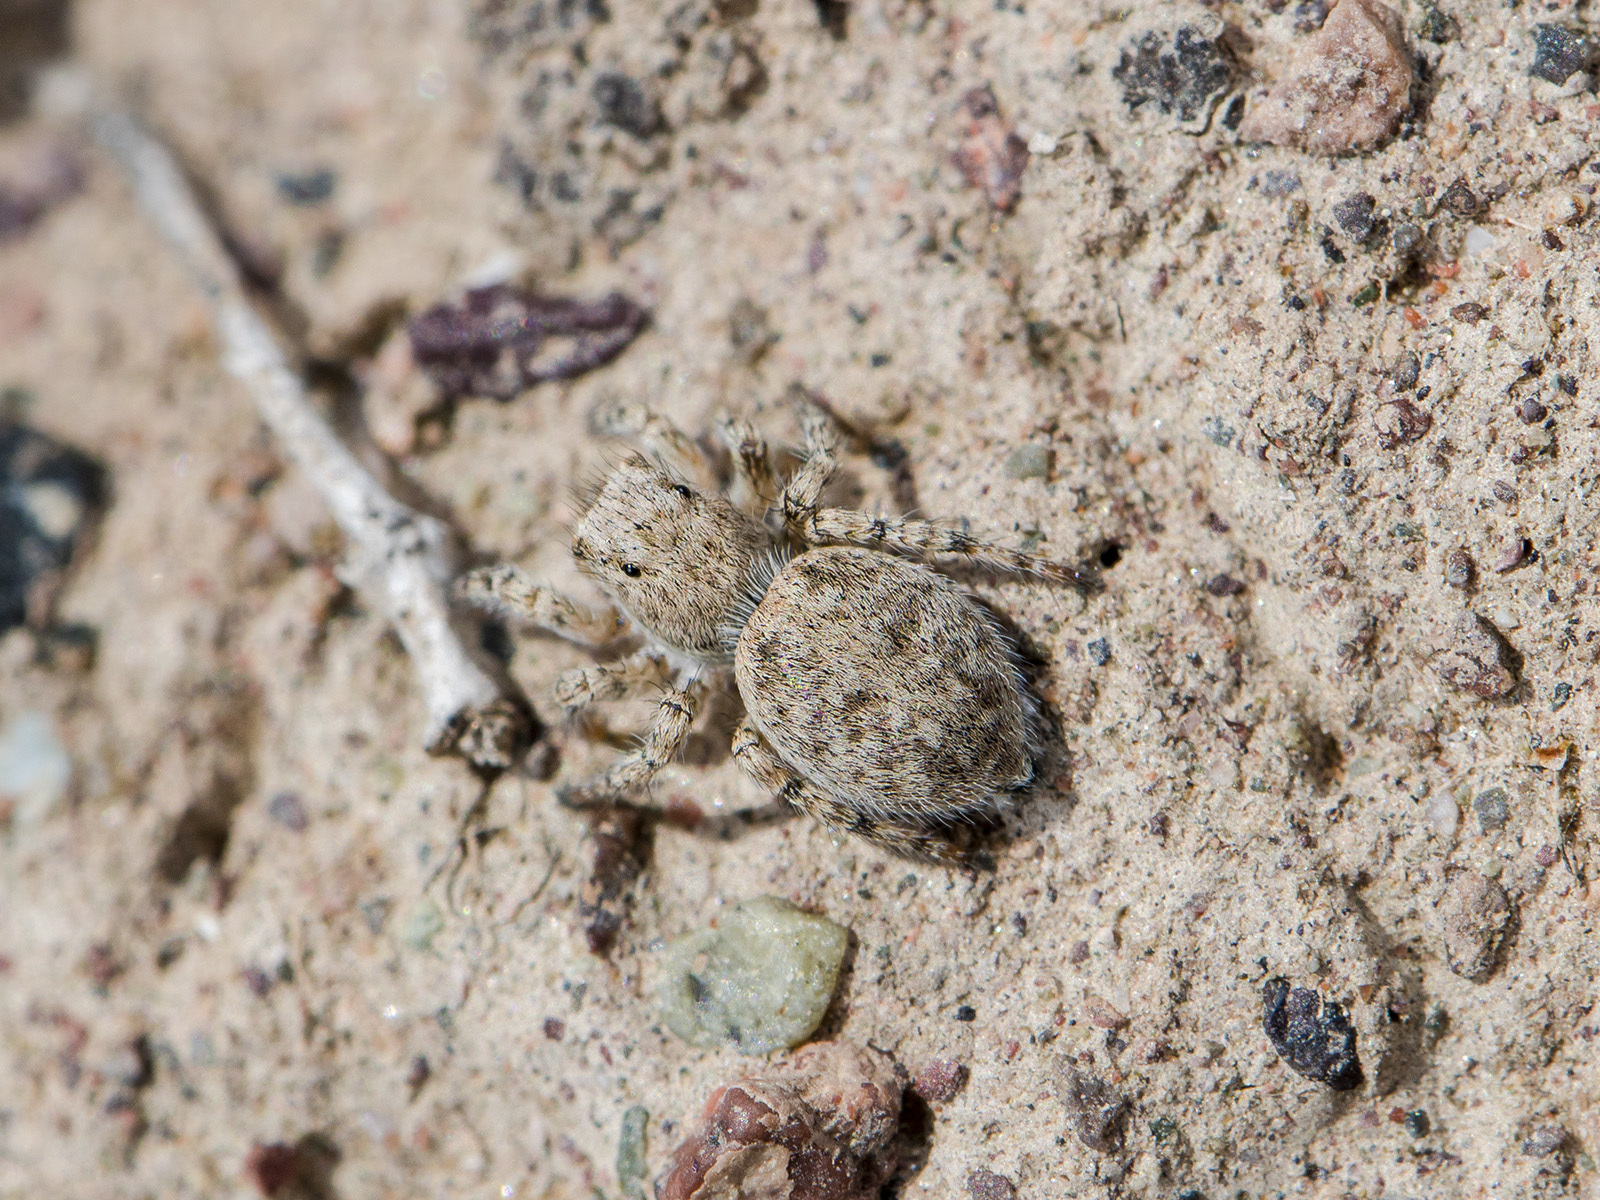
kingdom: Animalia
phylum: Arthropoda
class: Arachnida
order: Araneae
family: Salticidae
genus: Aelurillus
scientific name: Aelurillus dubatolovi
